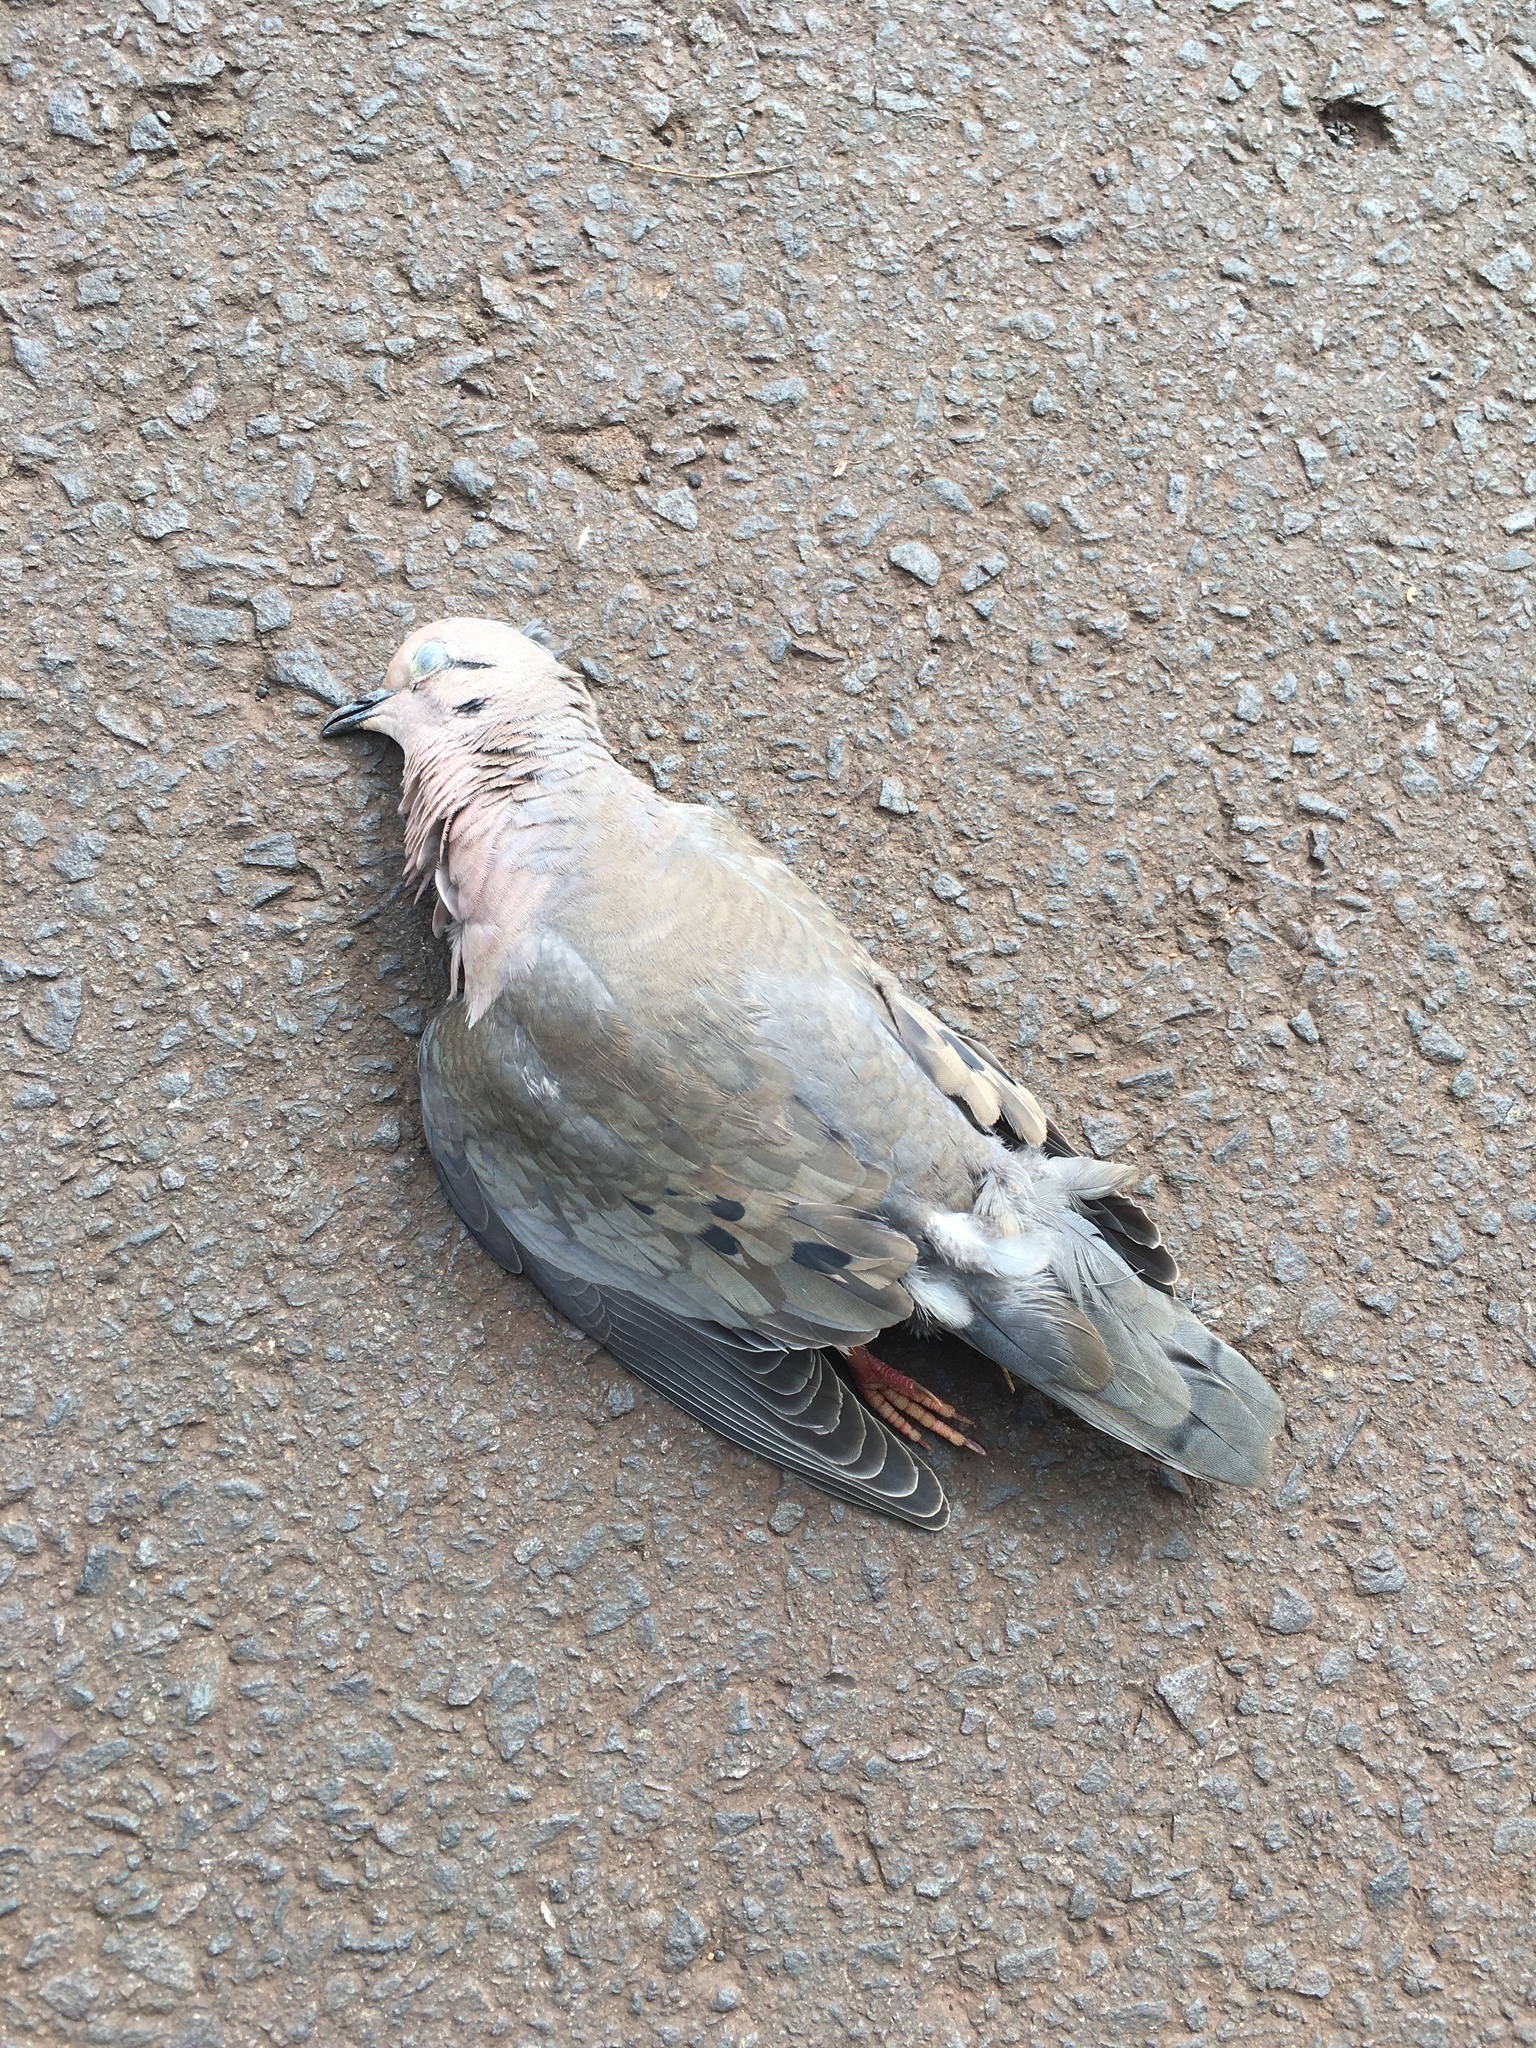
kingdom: Animalia
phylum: Chordata
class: Aves
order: Columbiformes
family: Columbidae
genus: Zenaida
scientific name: Zenaida auriculata
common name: Eared dove
